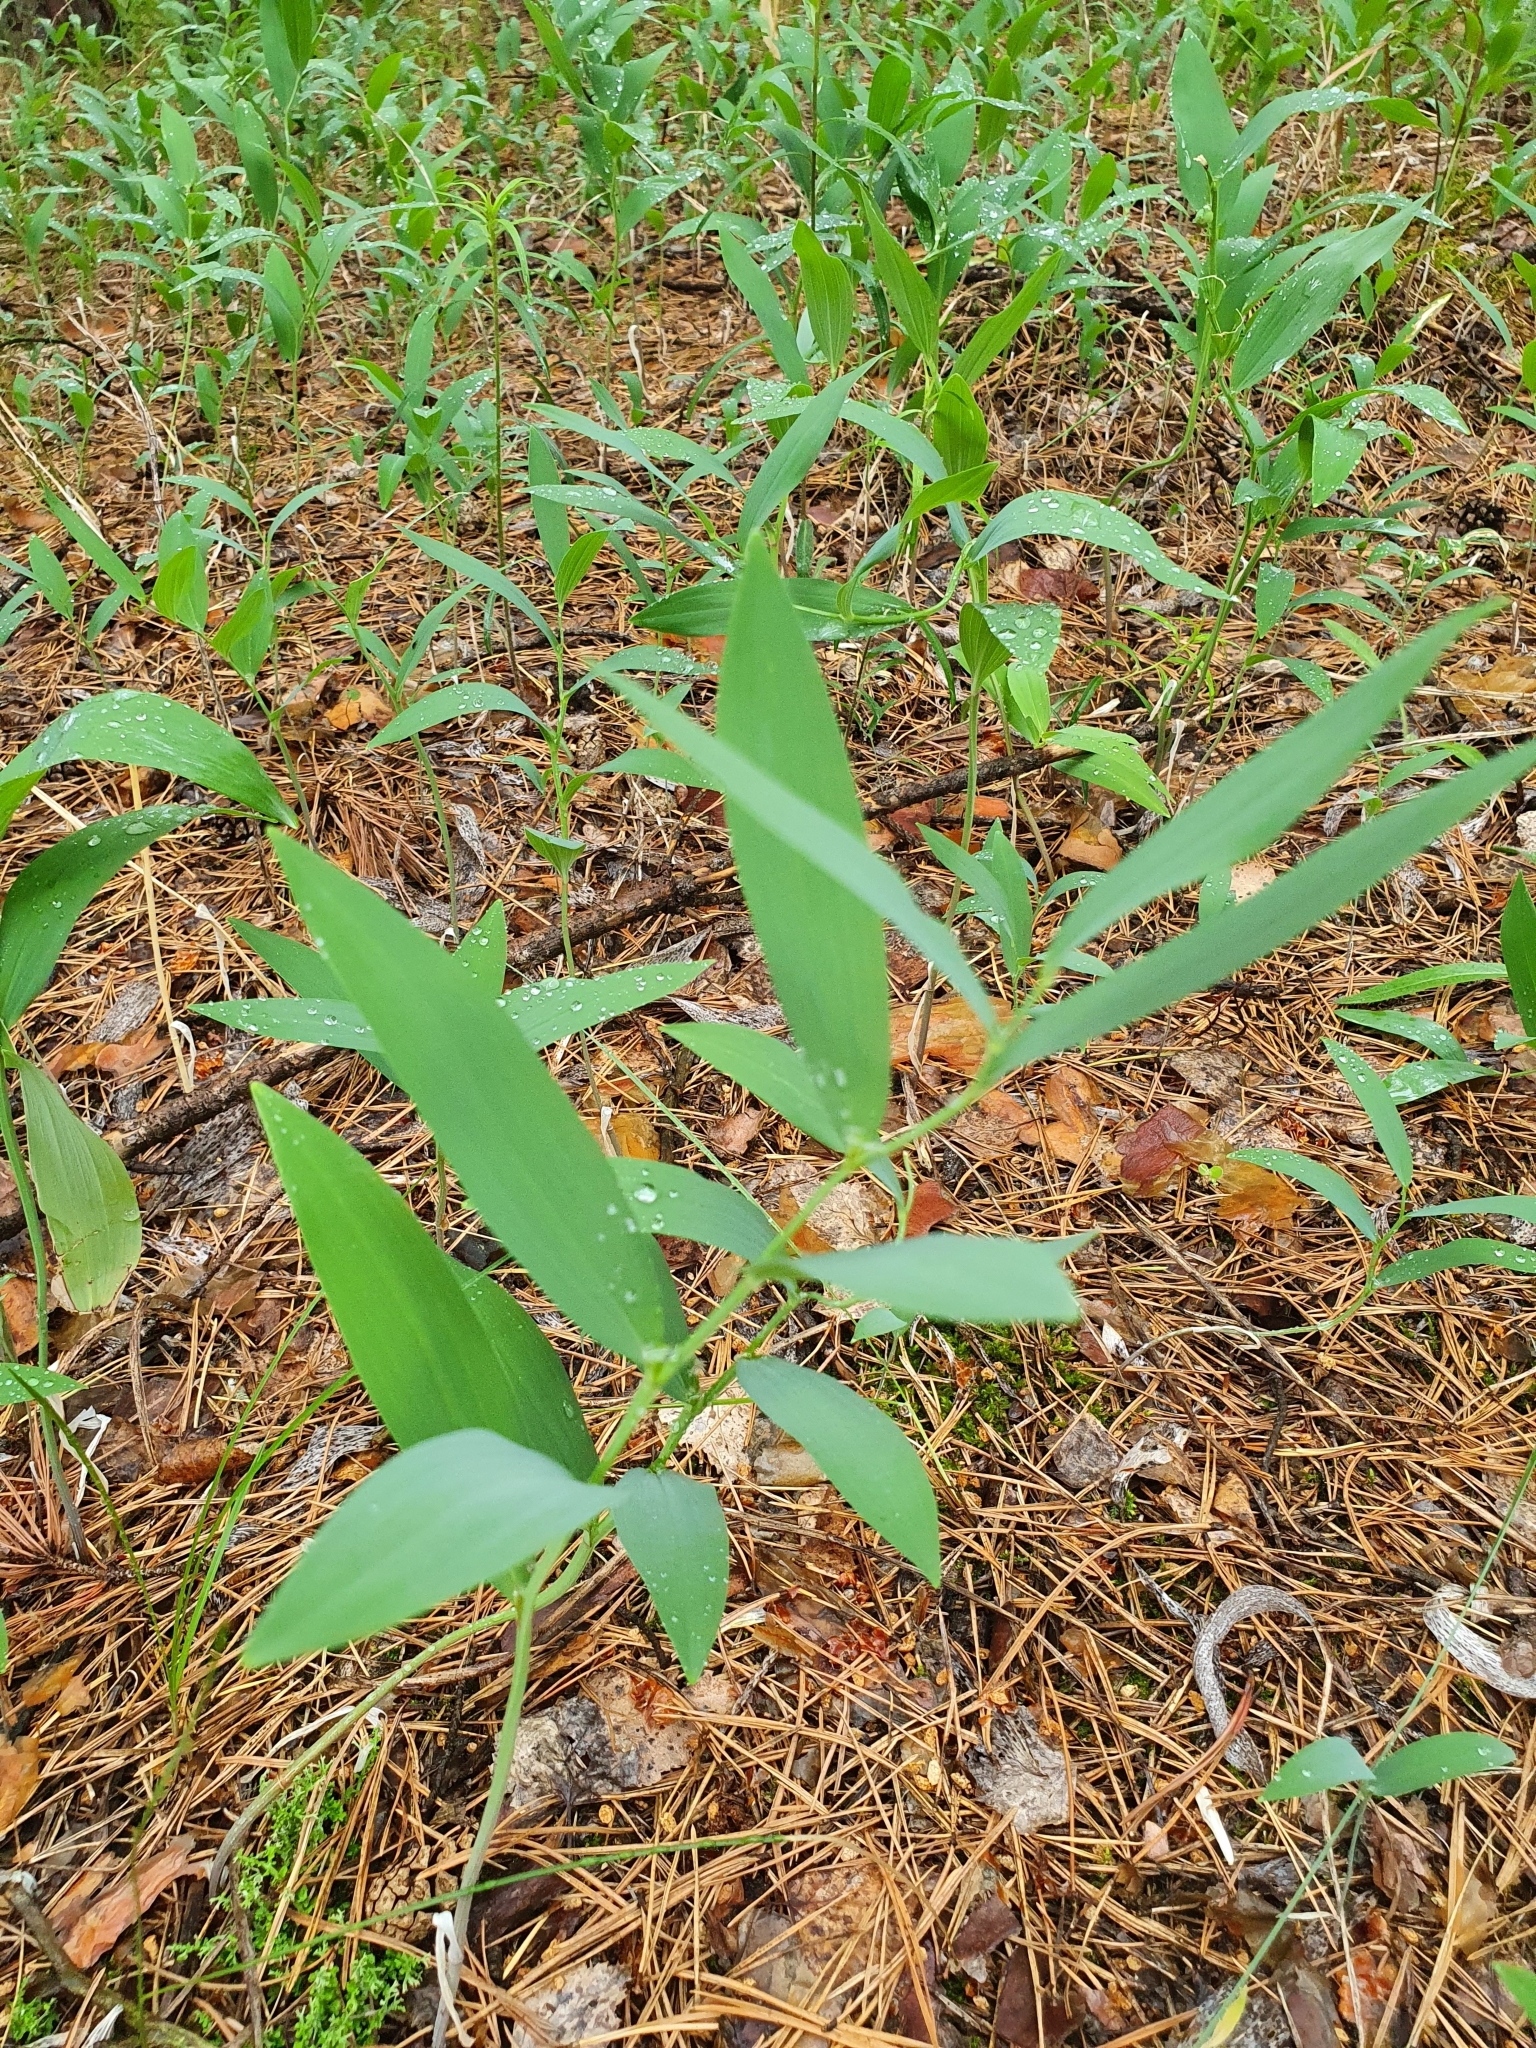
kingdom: Plantae
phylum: Tracheophyta
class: Liliopsida
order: Asparagales
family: Asparagaceae
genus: Polygonatum
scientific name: Polygonatum odoratum
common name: Angular solomon's-seal
